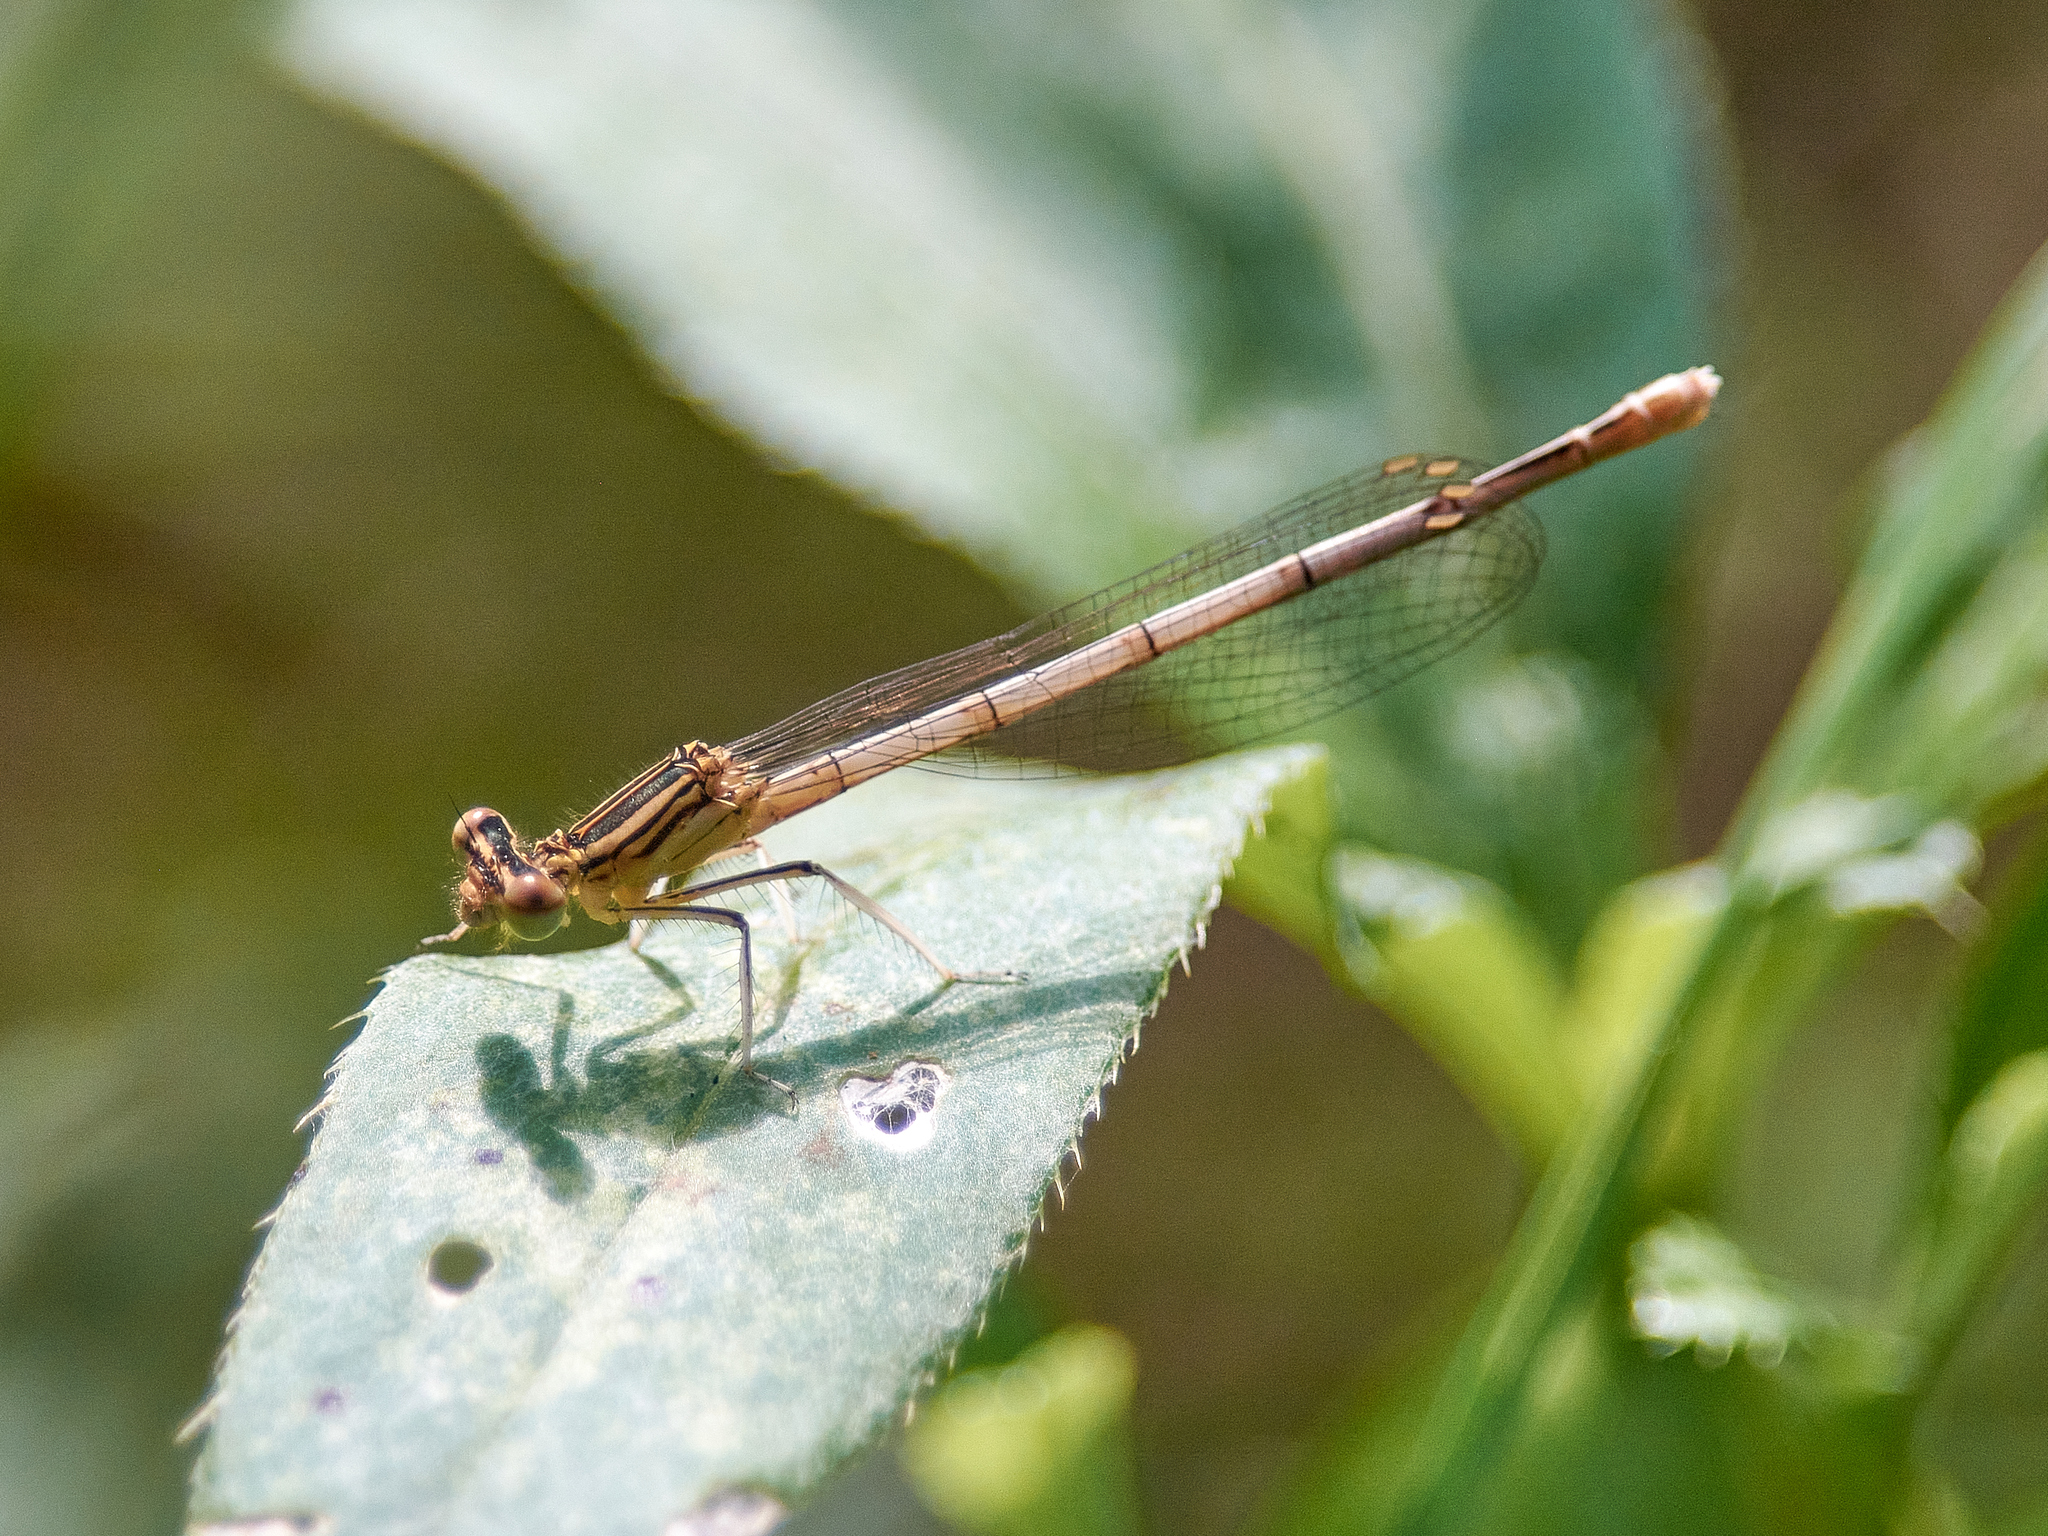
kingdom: Animalia
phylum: Arthropoda
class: Insecta
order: Odonata
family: Platycnemididae
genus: Platycnemis
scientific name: Platycnemis pennipes
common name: White-legged damselfly
